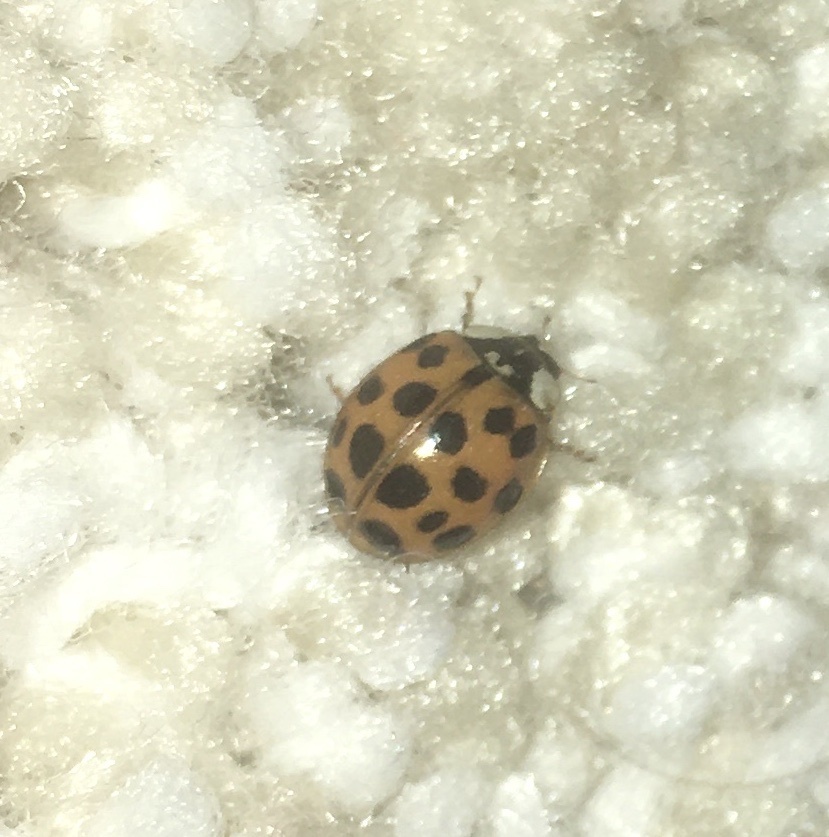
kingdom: Animalia
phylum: Arthropoda
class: Insecta
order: Coleoptera
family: Coccinellidae
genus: Harmonia
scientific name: Harmonia axyridis
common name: Harlequin ladybird
